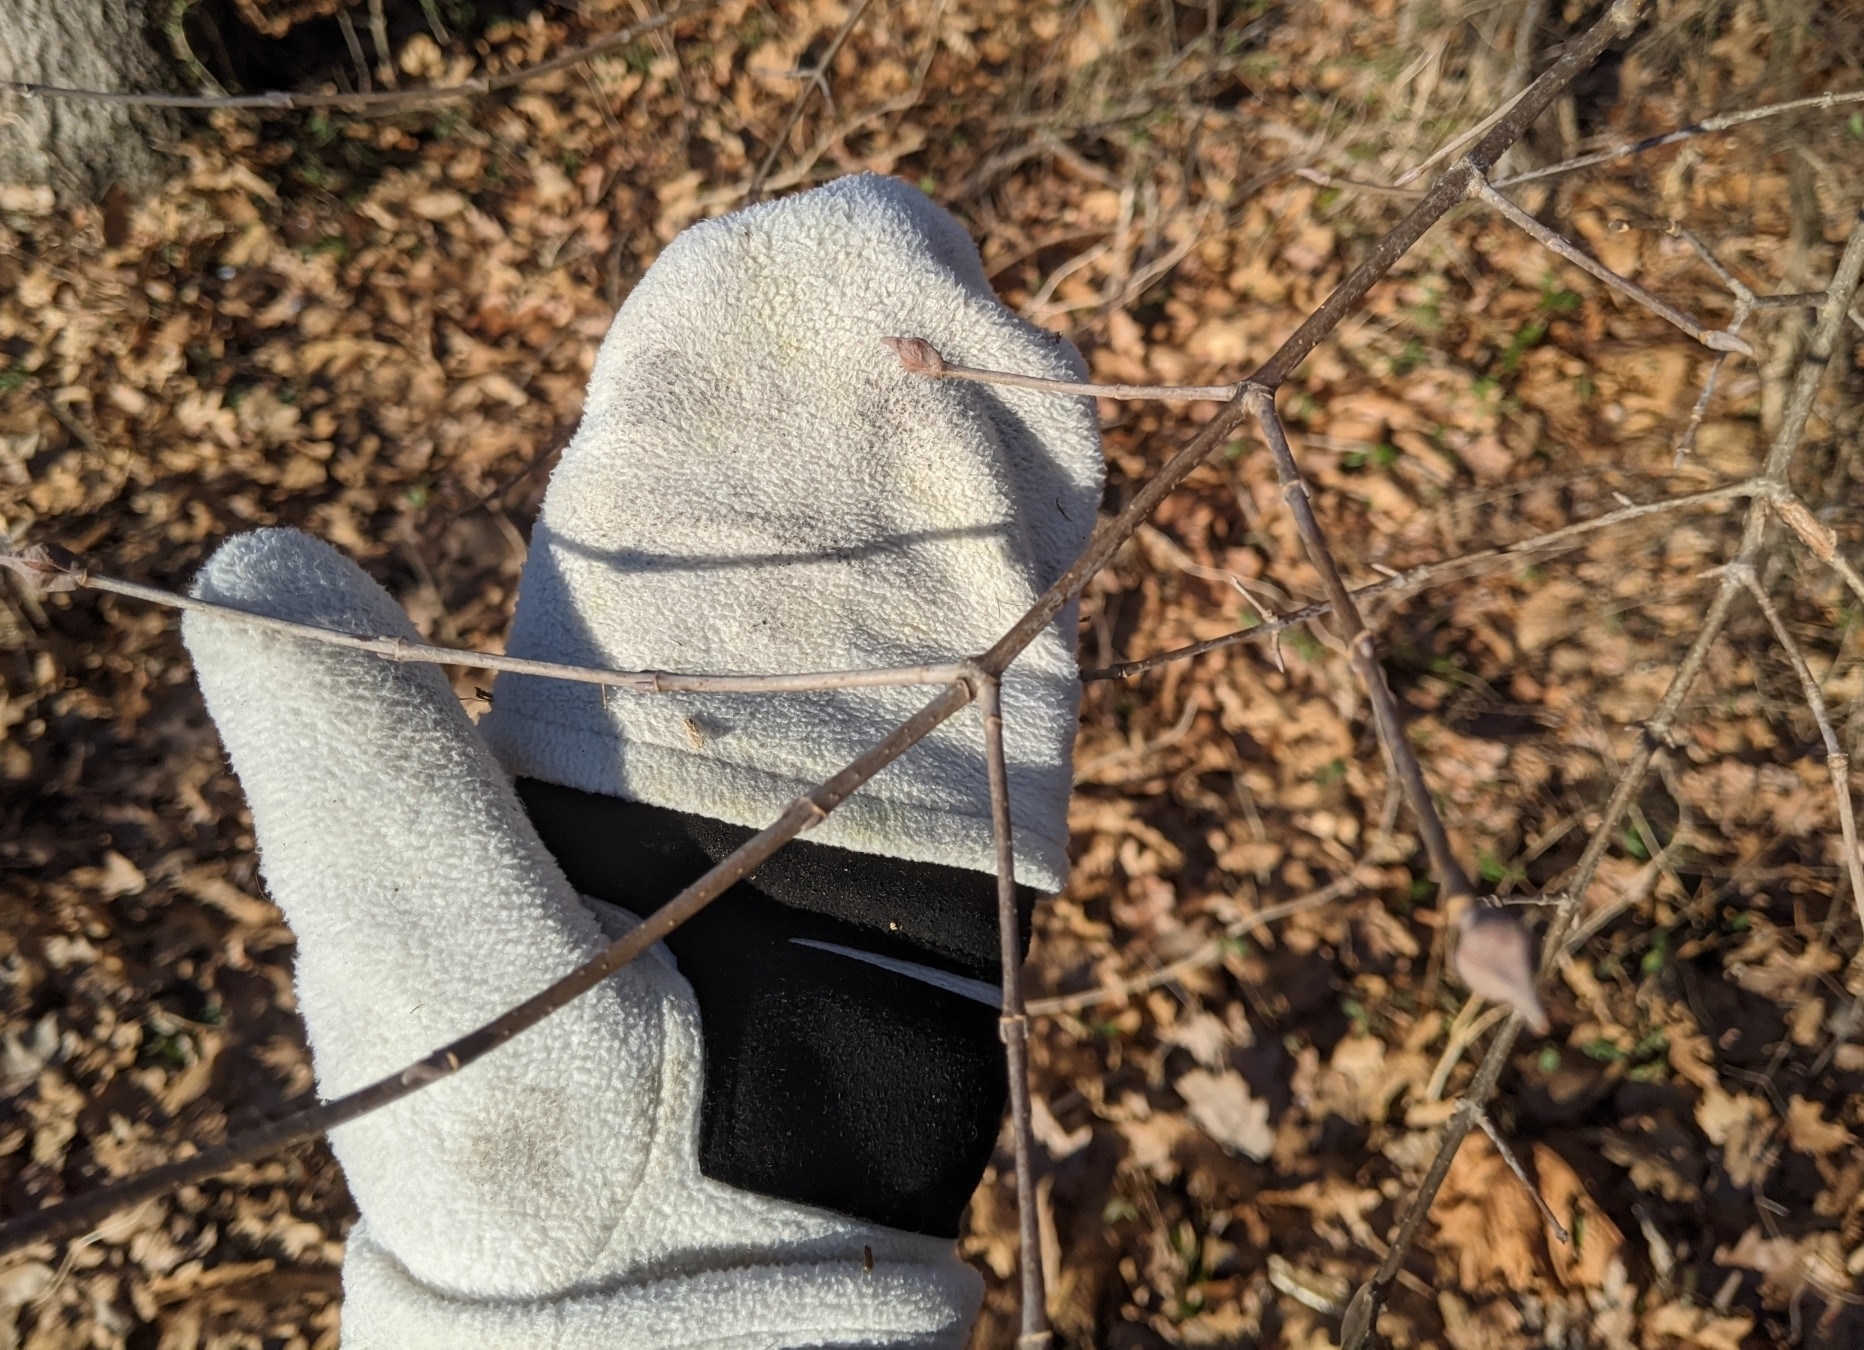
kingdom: Plantae
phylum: Tracheophyta
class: Magnoliopsida
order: Dipsacales
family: Viburnaceae
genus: Viburnum
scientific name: Viburnum prunifolium
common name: Black haw
